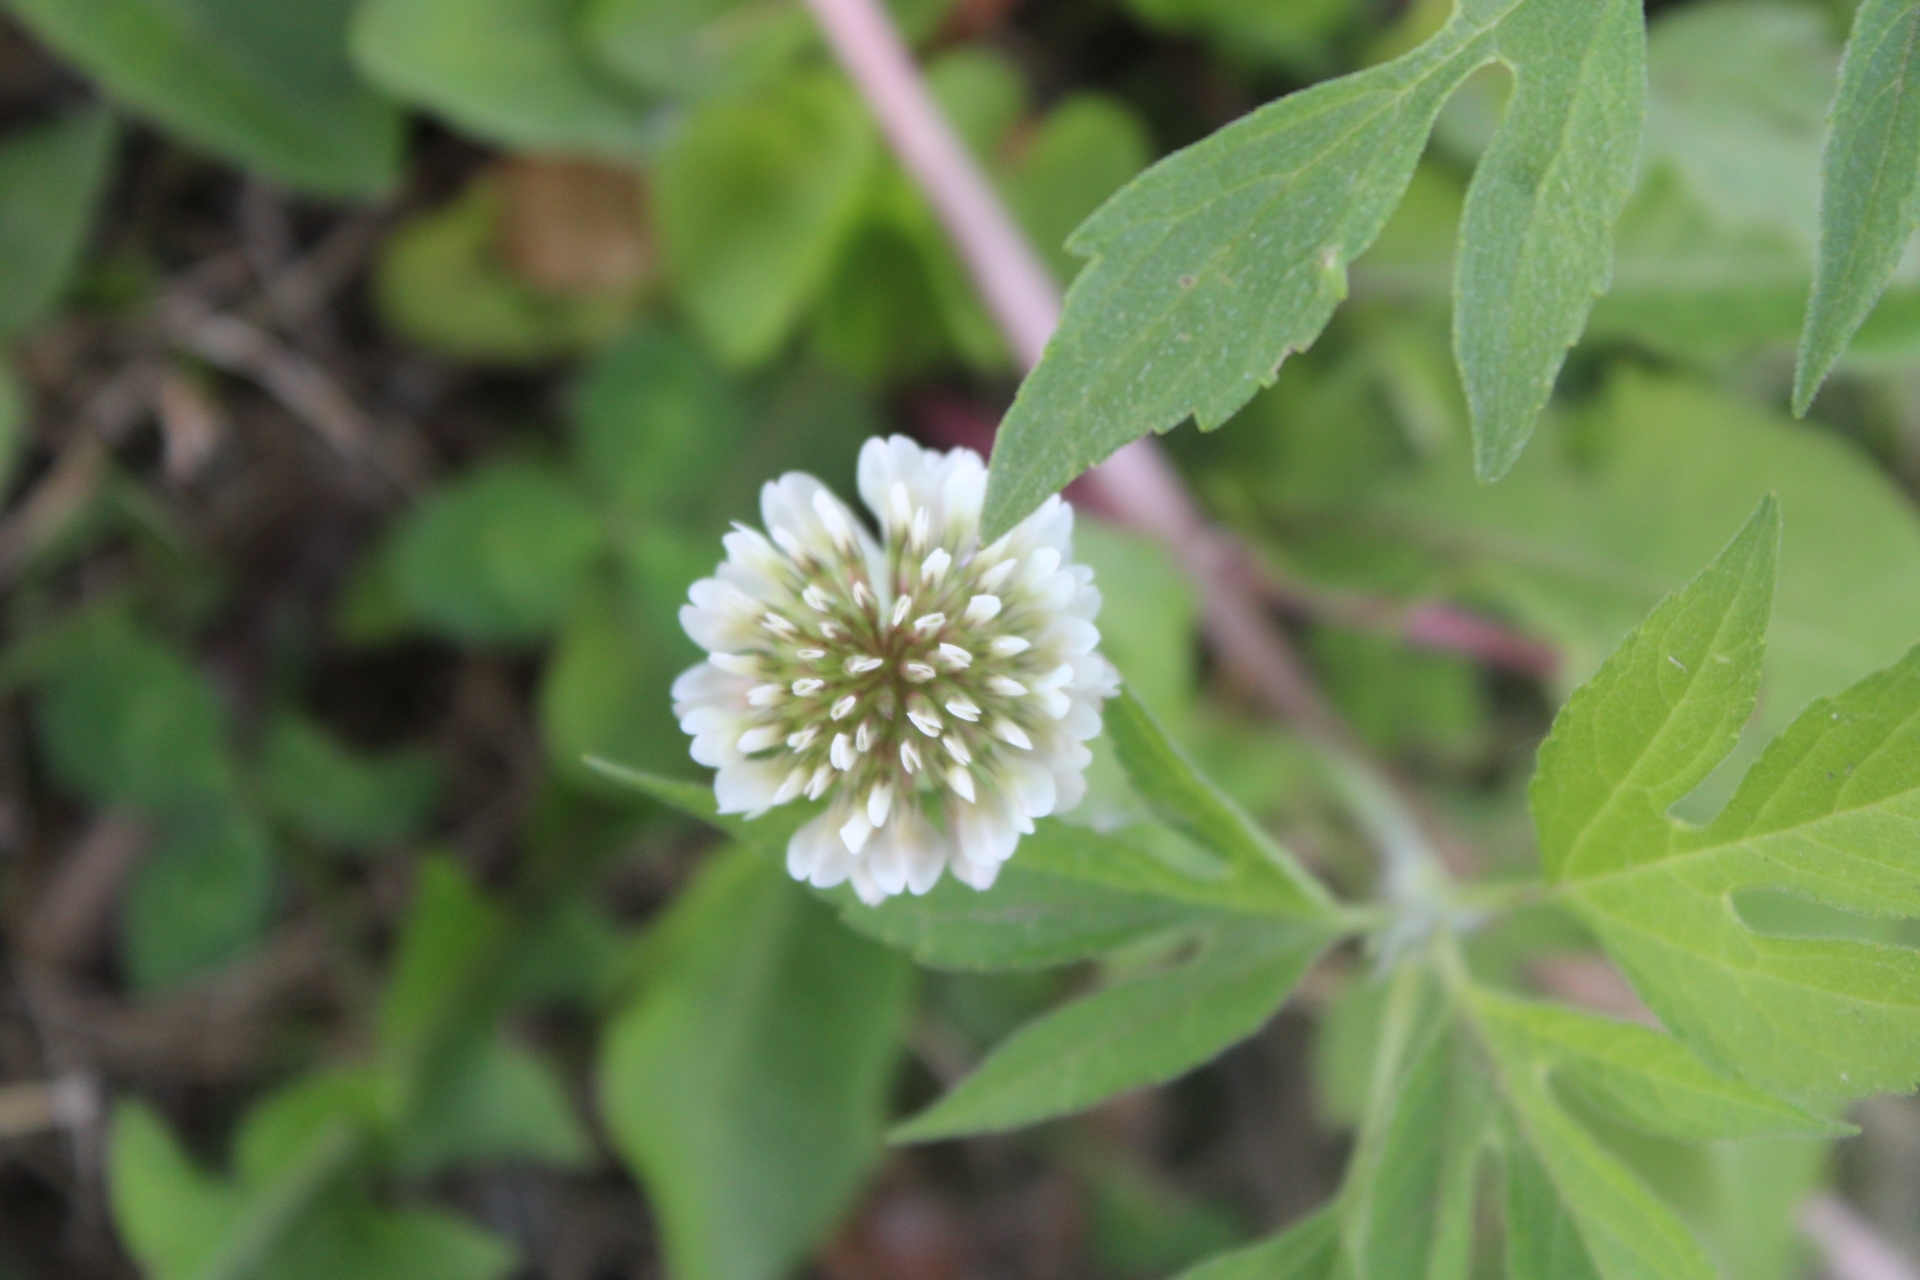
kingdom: Plantae
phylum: Tracheophyta
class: Magnoliopsida
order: Fabales
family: Fabaceae
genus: Trifolium
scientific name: Trifolium repens
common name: White clover
